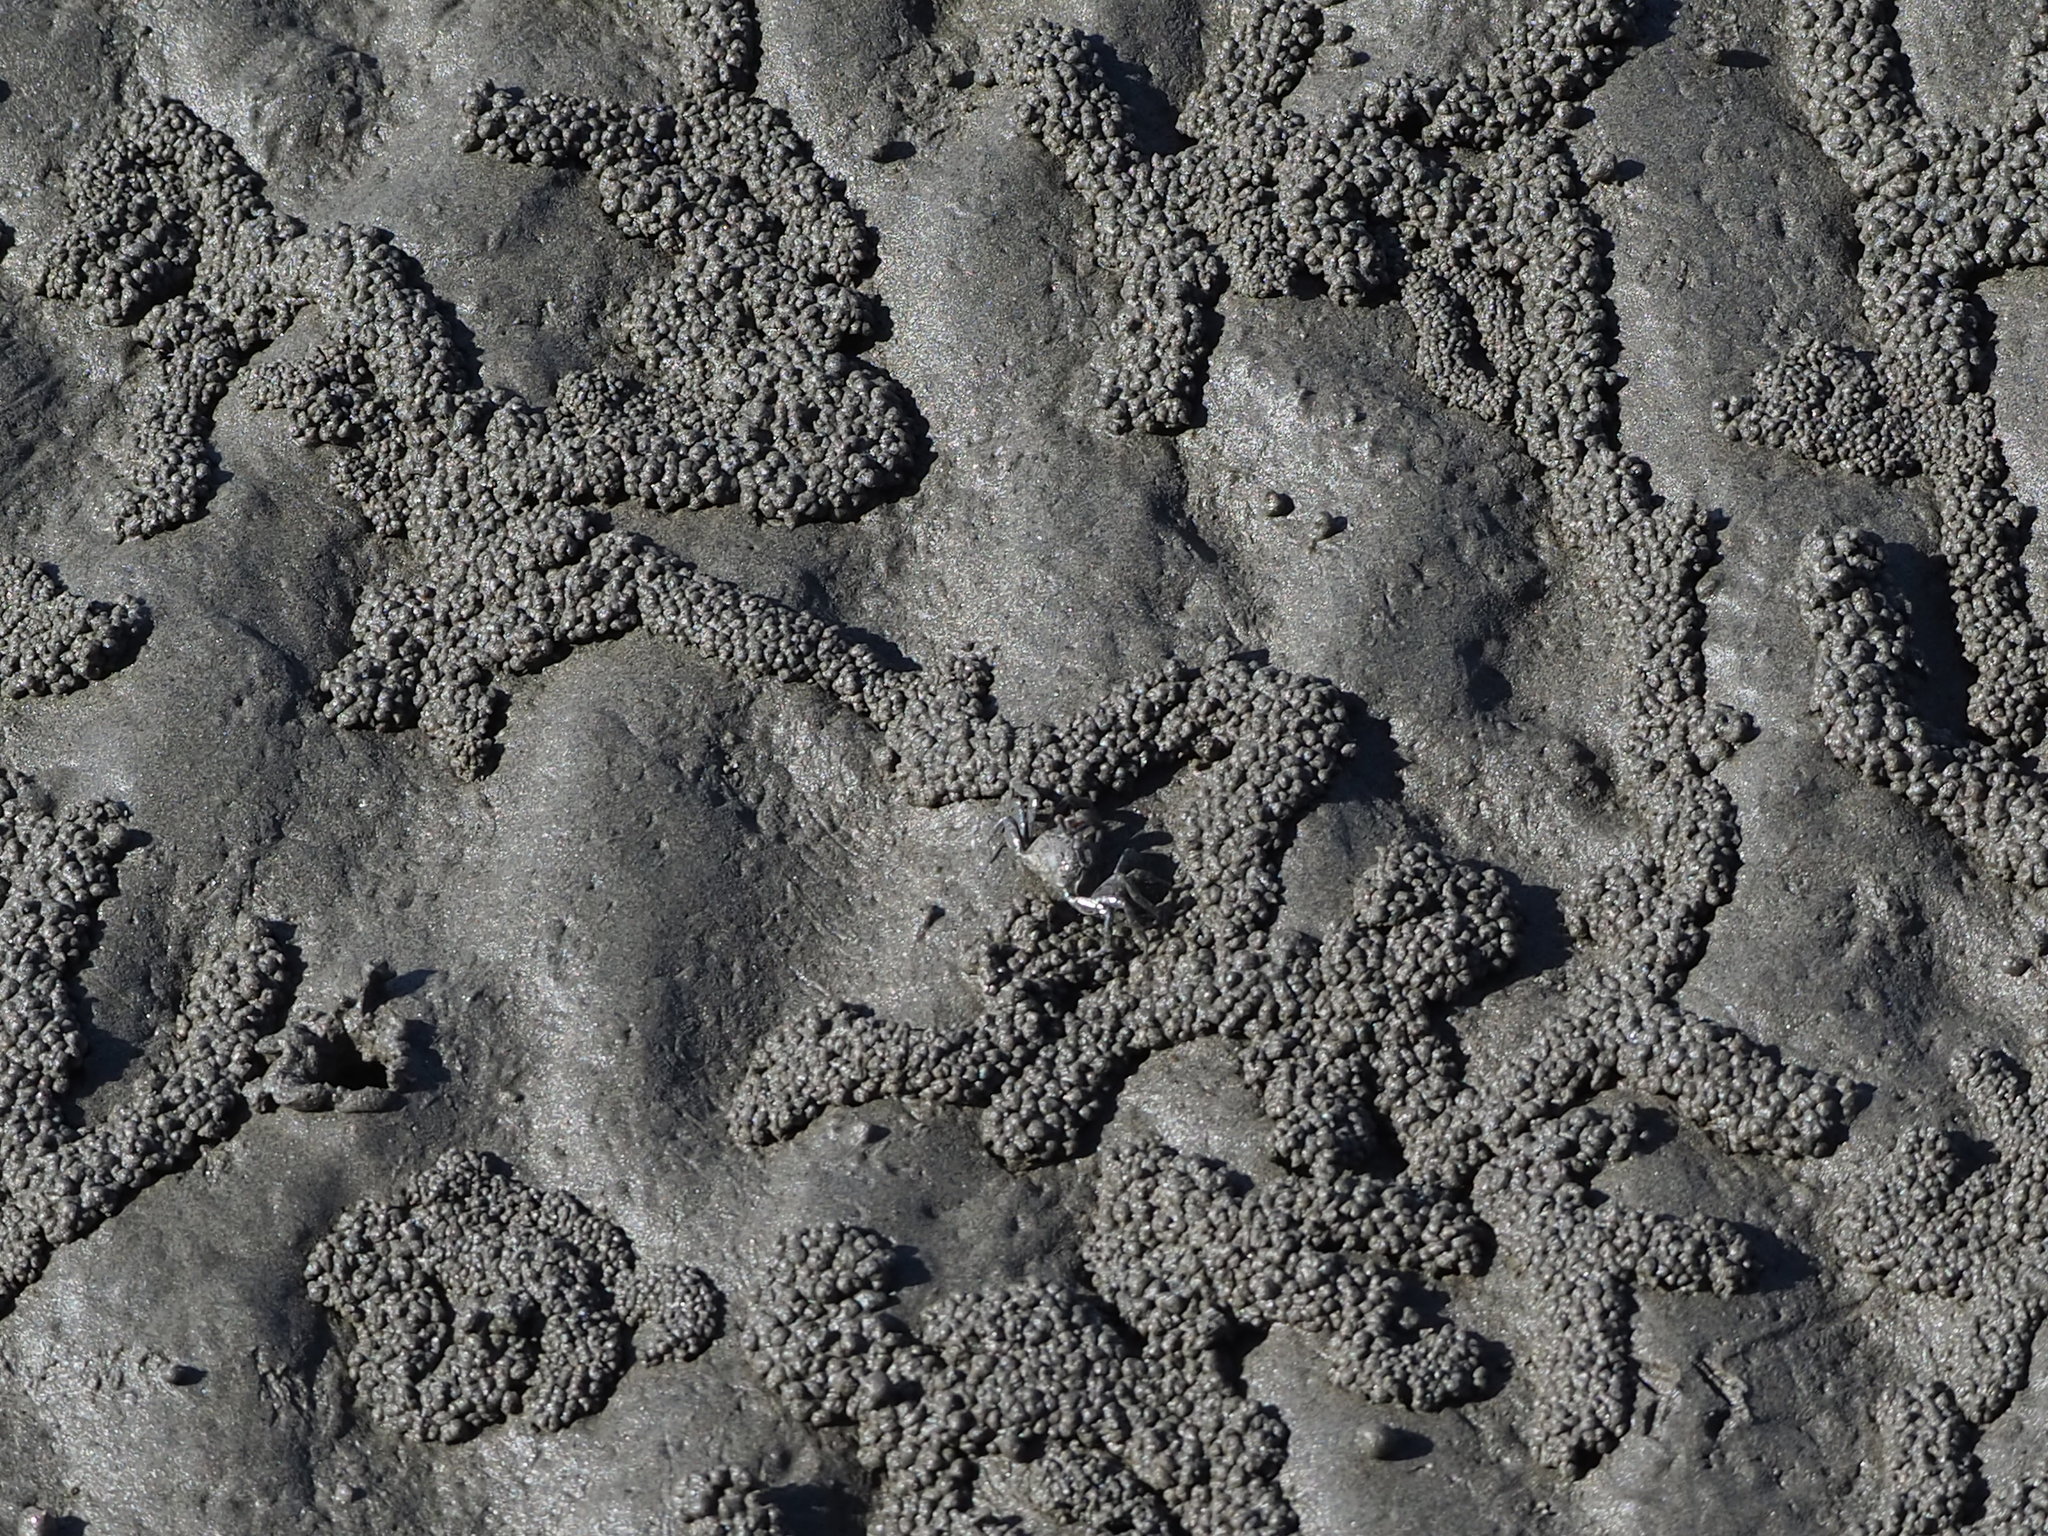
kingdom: Animalia
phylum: Arthropoda
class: Malacostraca
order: Decapoda
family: Dotillidae
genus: Scopimera
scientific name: Scopimera bitympana
